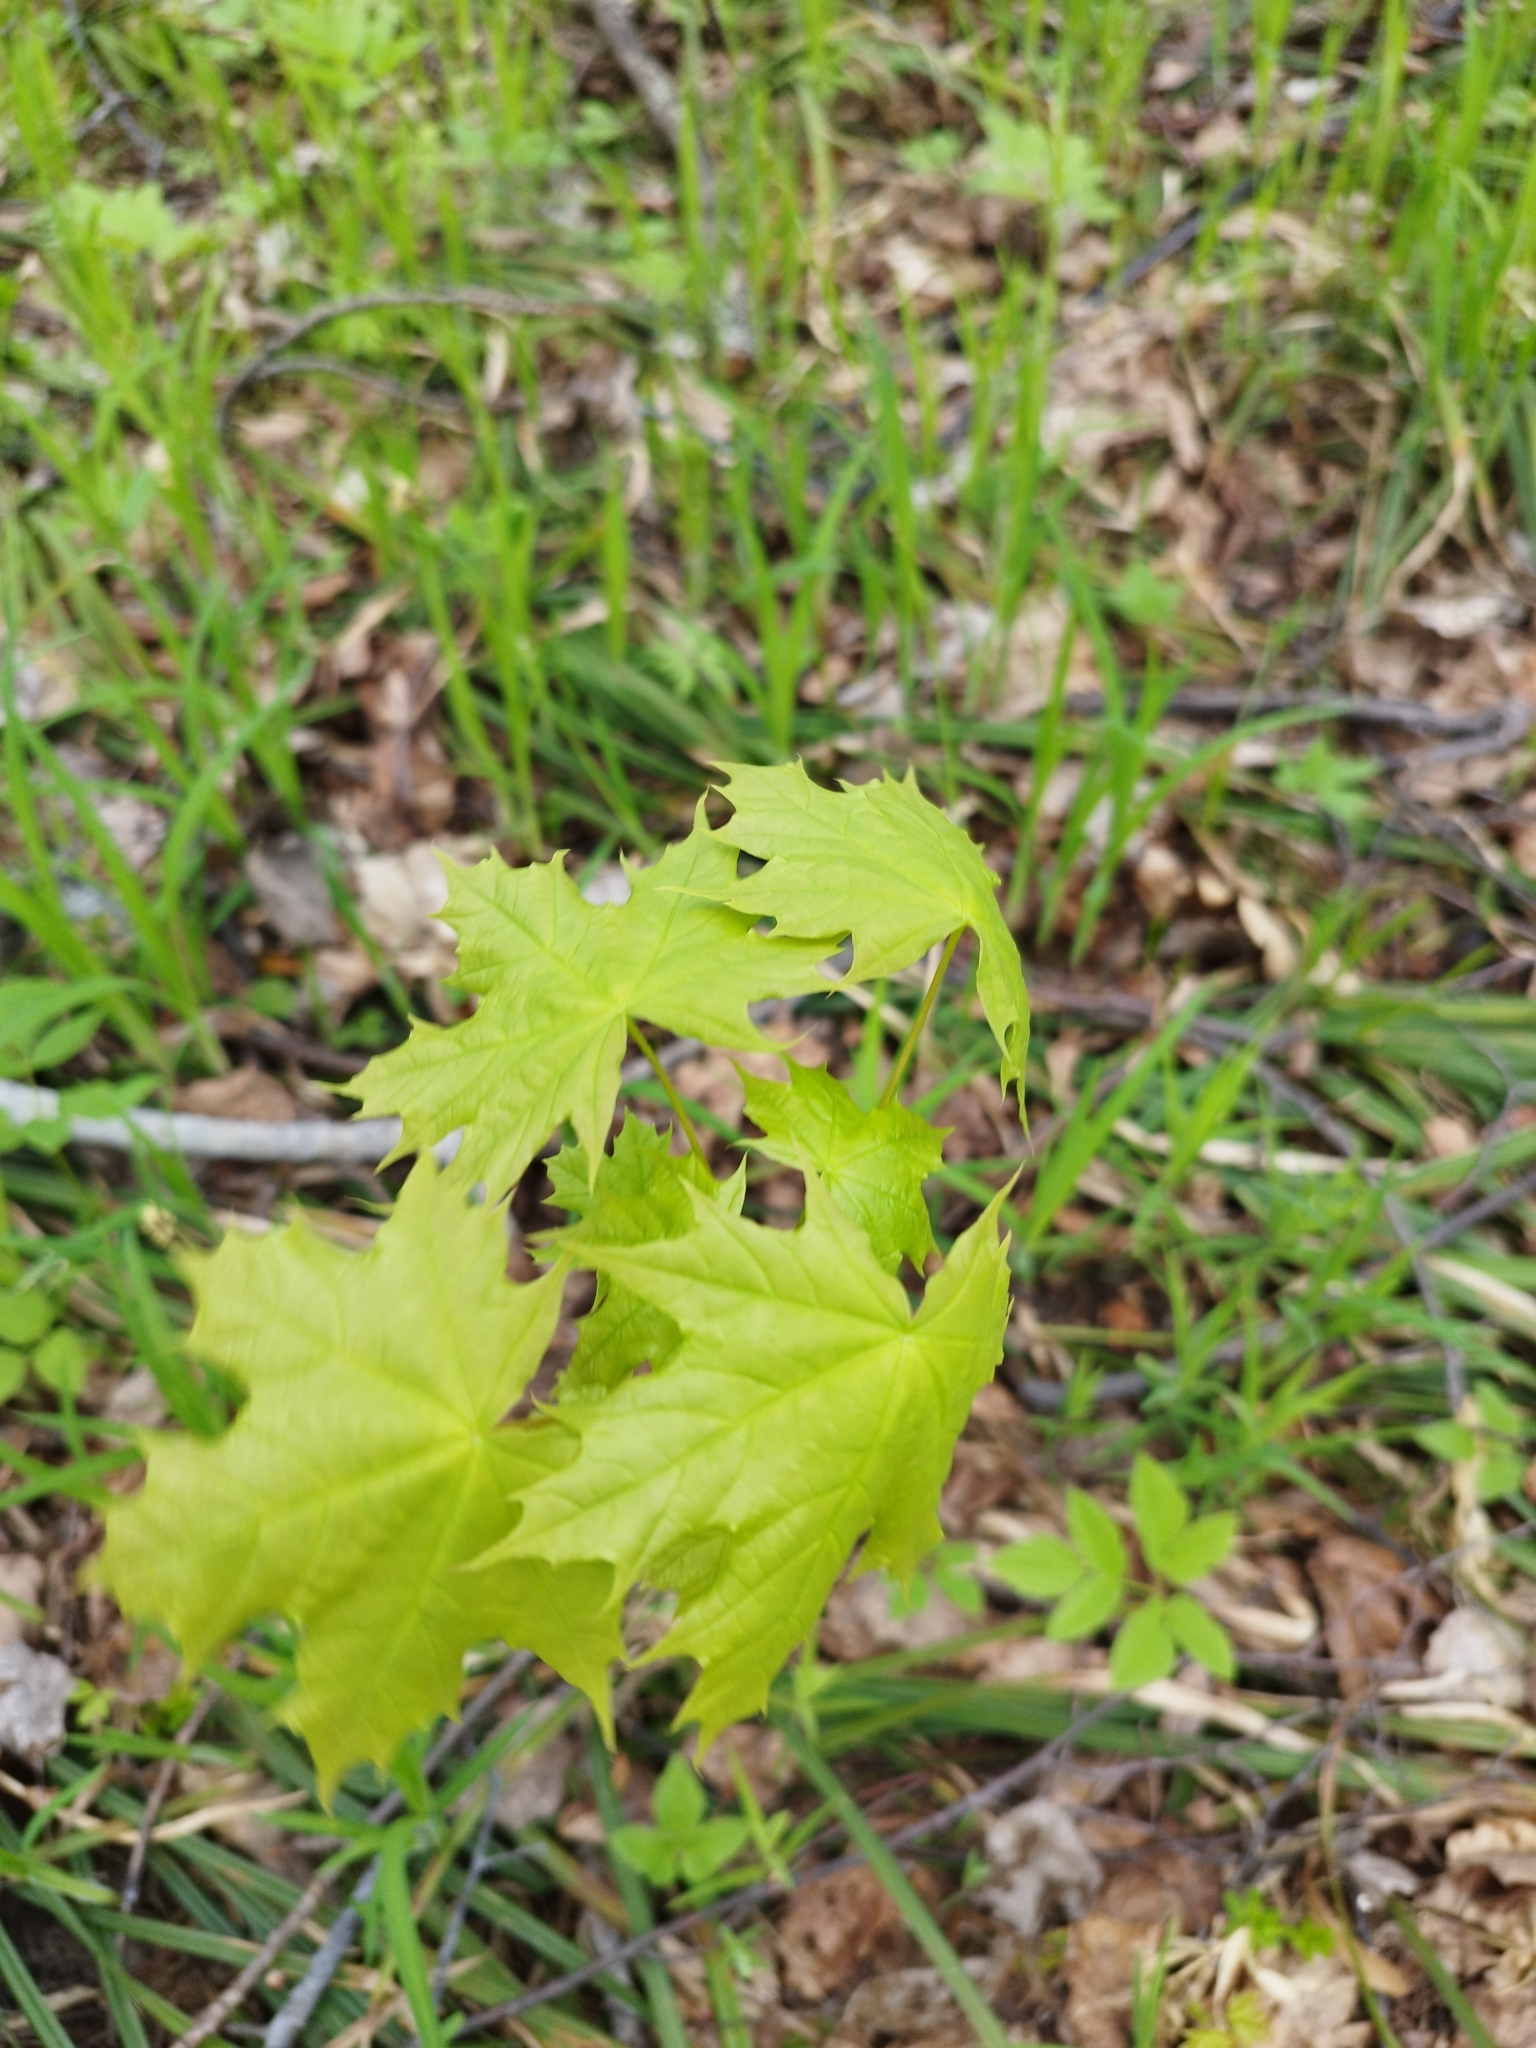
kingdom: Plantae
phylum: Tracheophyta
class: Magnoliopsida
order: Sapindales
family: Sapindaceae
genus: Acer
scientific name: Acer platanoides
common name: Norway maple
